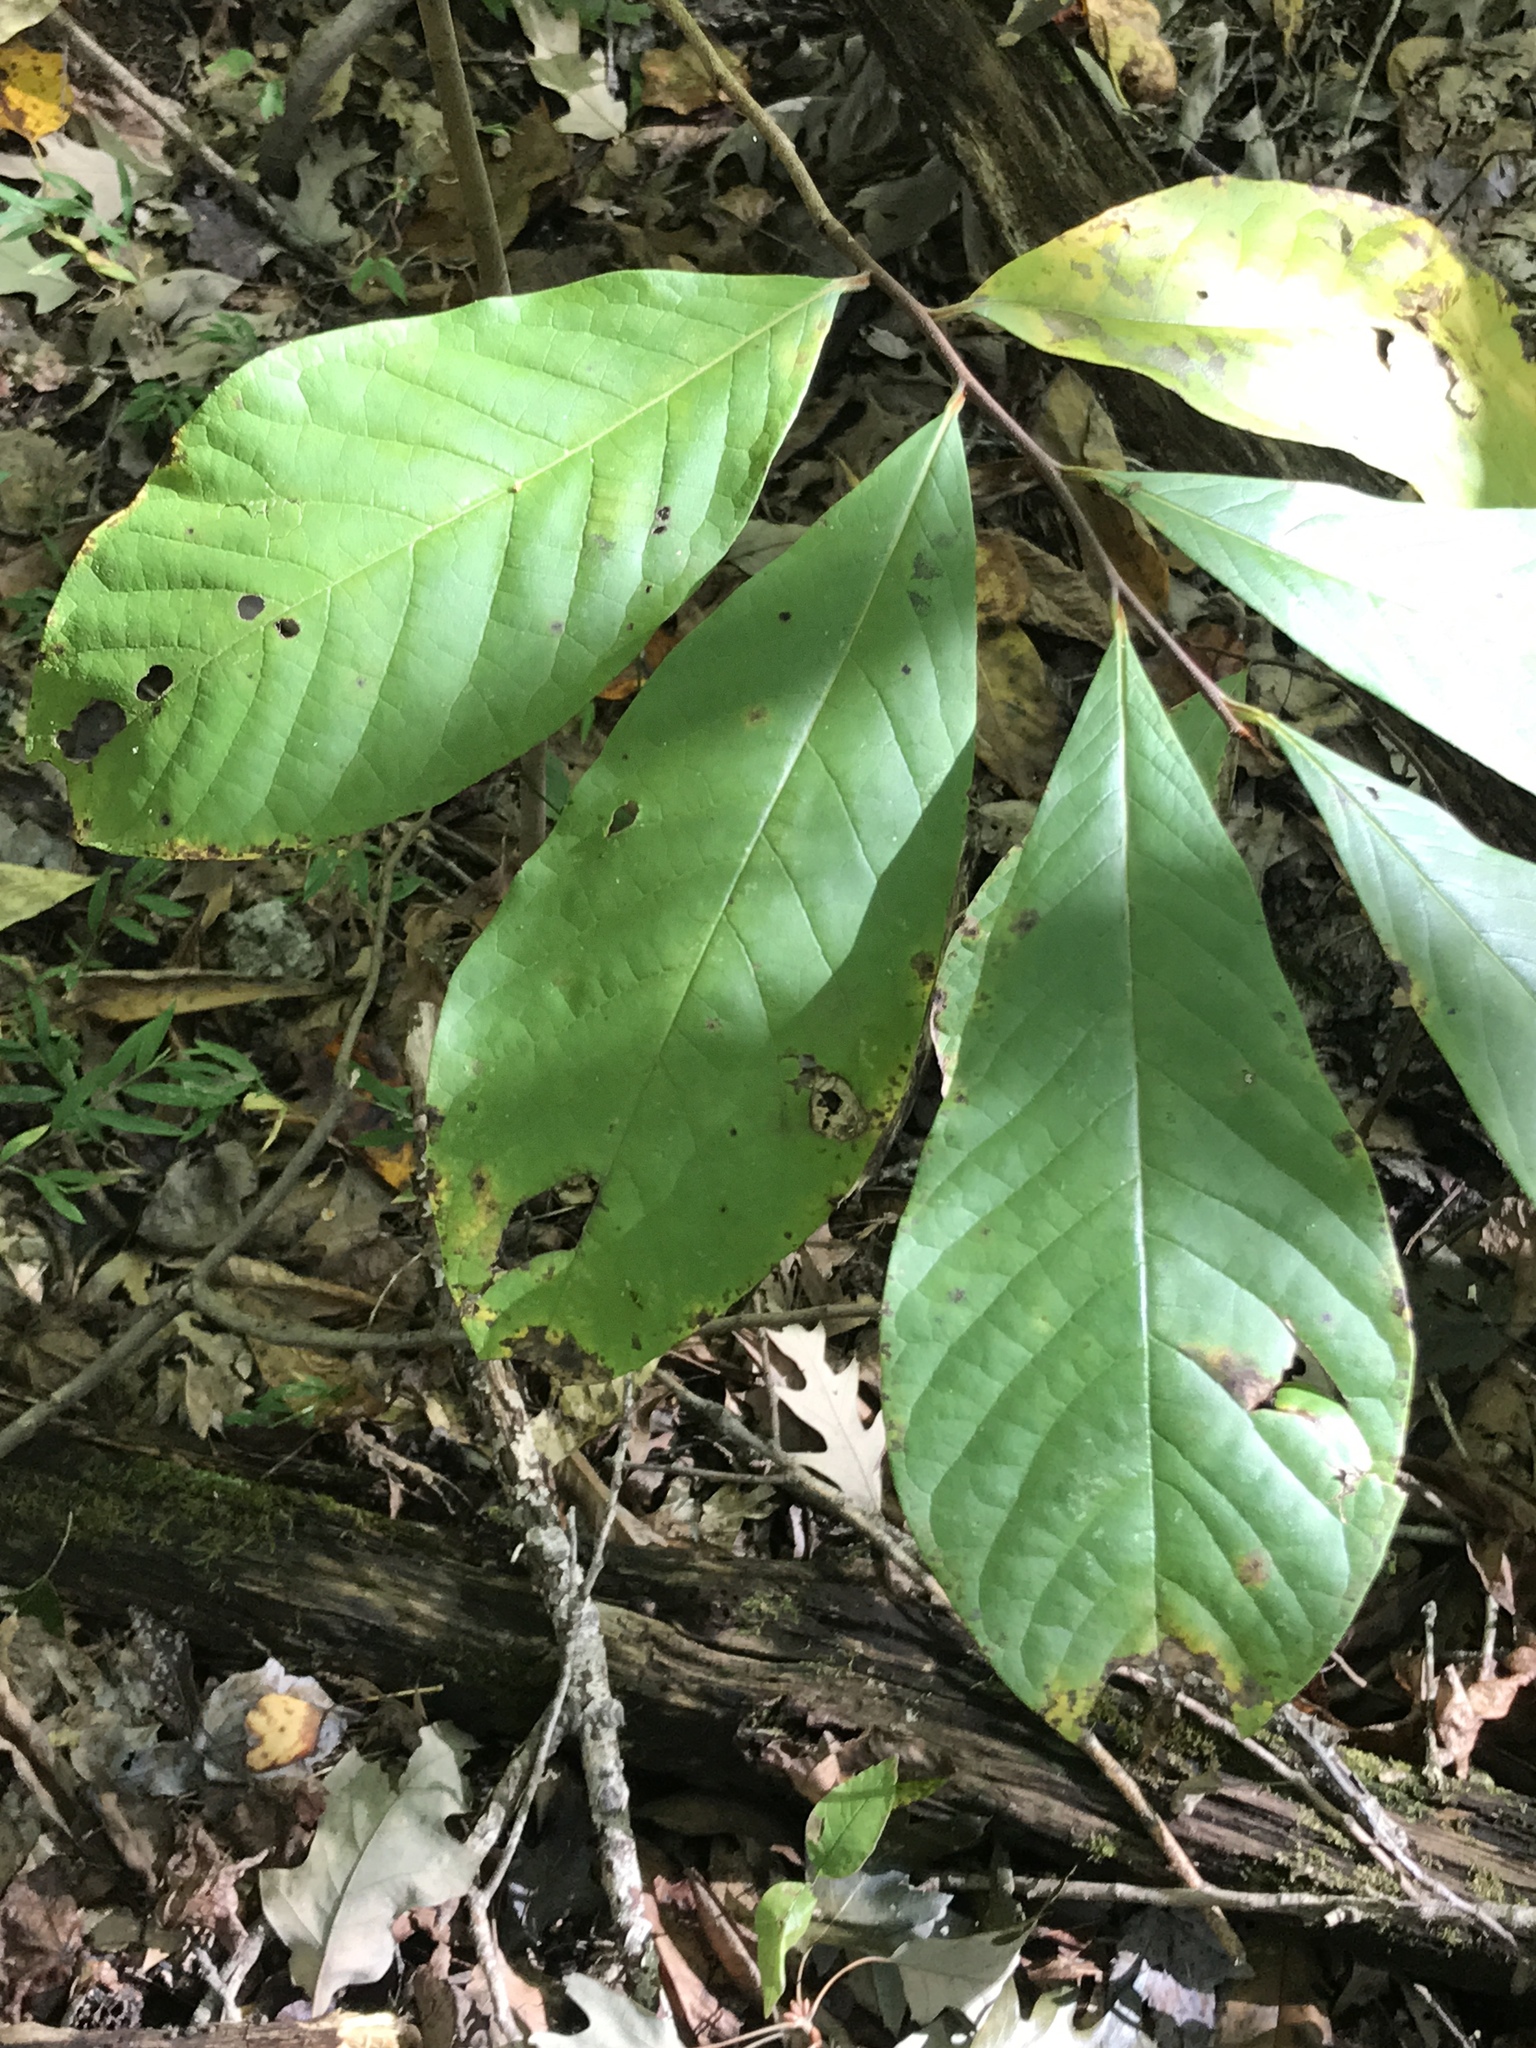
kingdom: Plantae
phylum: Tracheophyta
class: Magnoliopsida
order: Magnoliales
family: Annonaceae
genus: Asimina
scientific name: Asimina triloba
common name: Dog-banana
